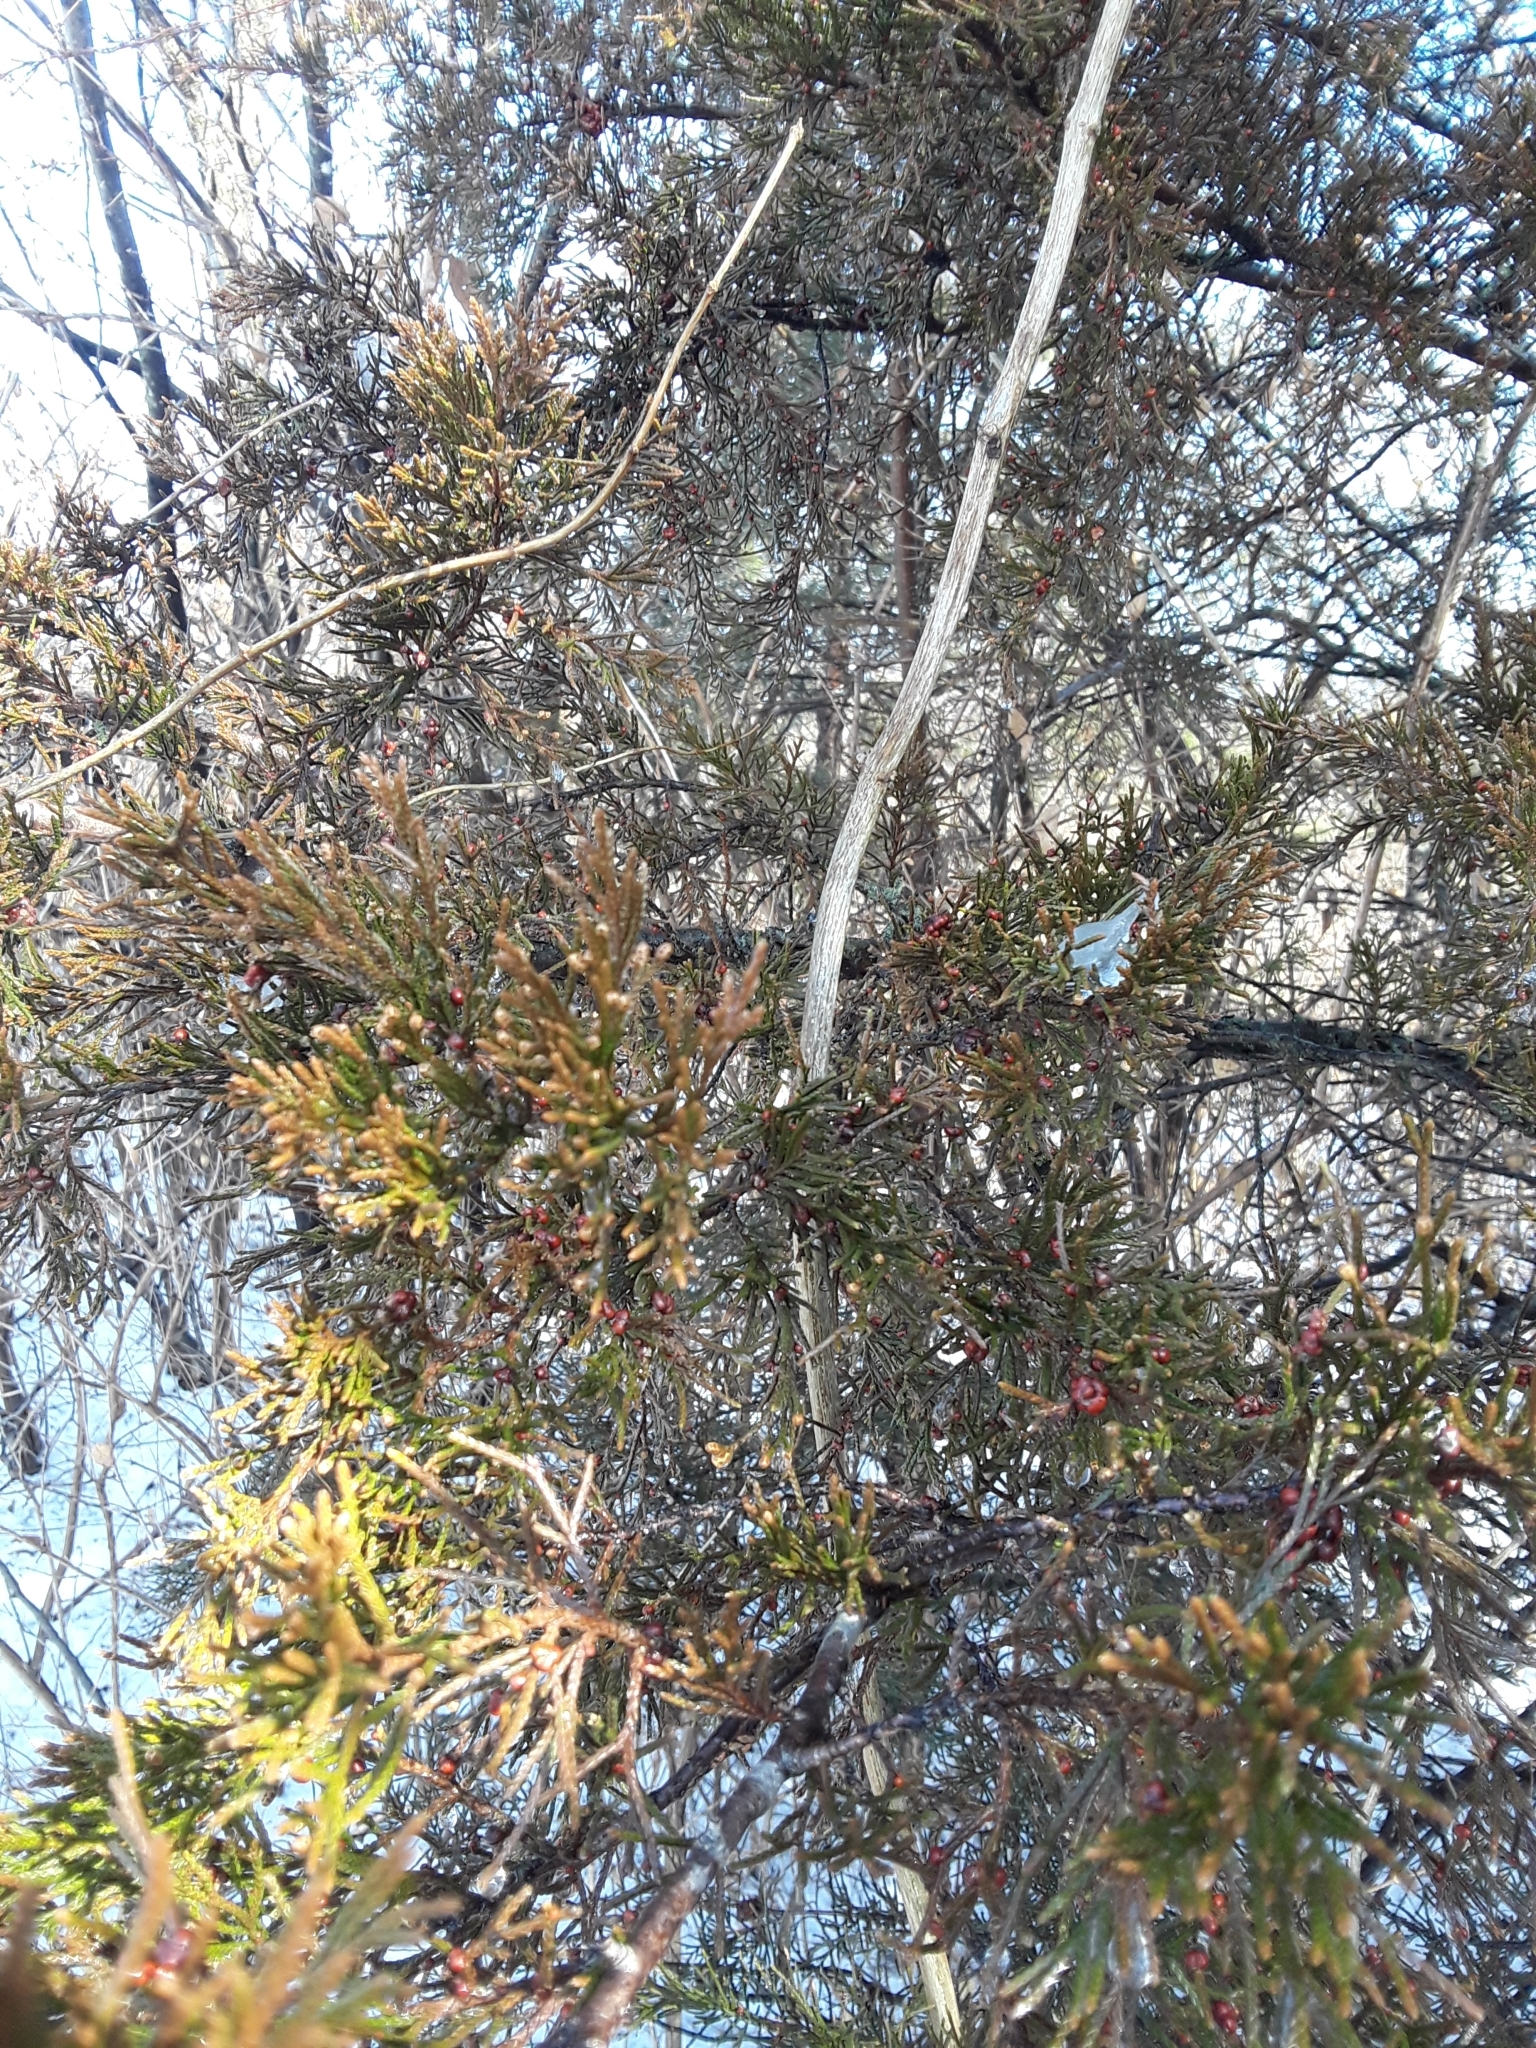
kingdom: Plantae
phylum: Tracheophyta
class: Pinopsida
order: Pinales
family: Cupressaceae
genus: Juniperus
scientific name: Juniperus virginiana
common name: Red juniper
